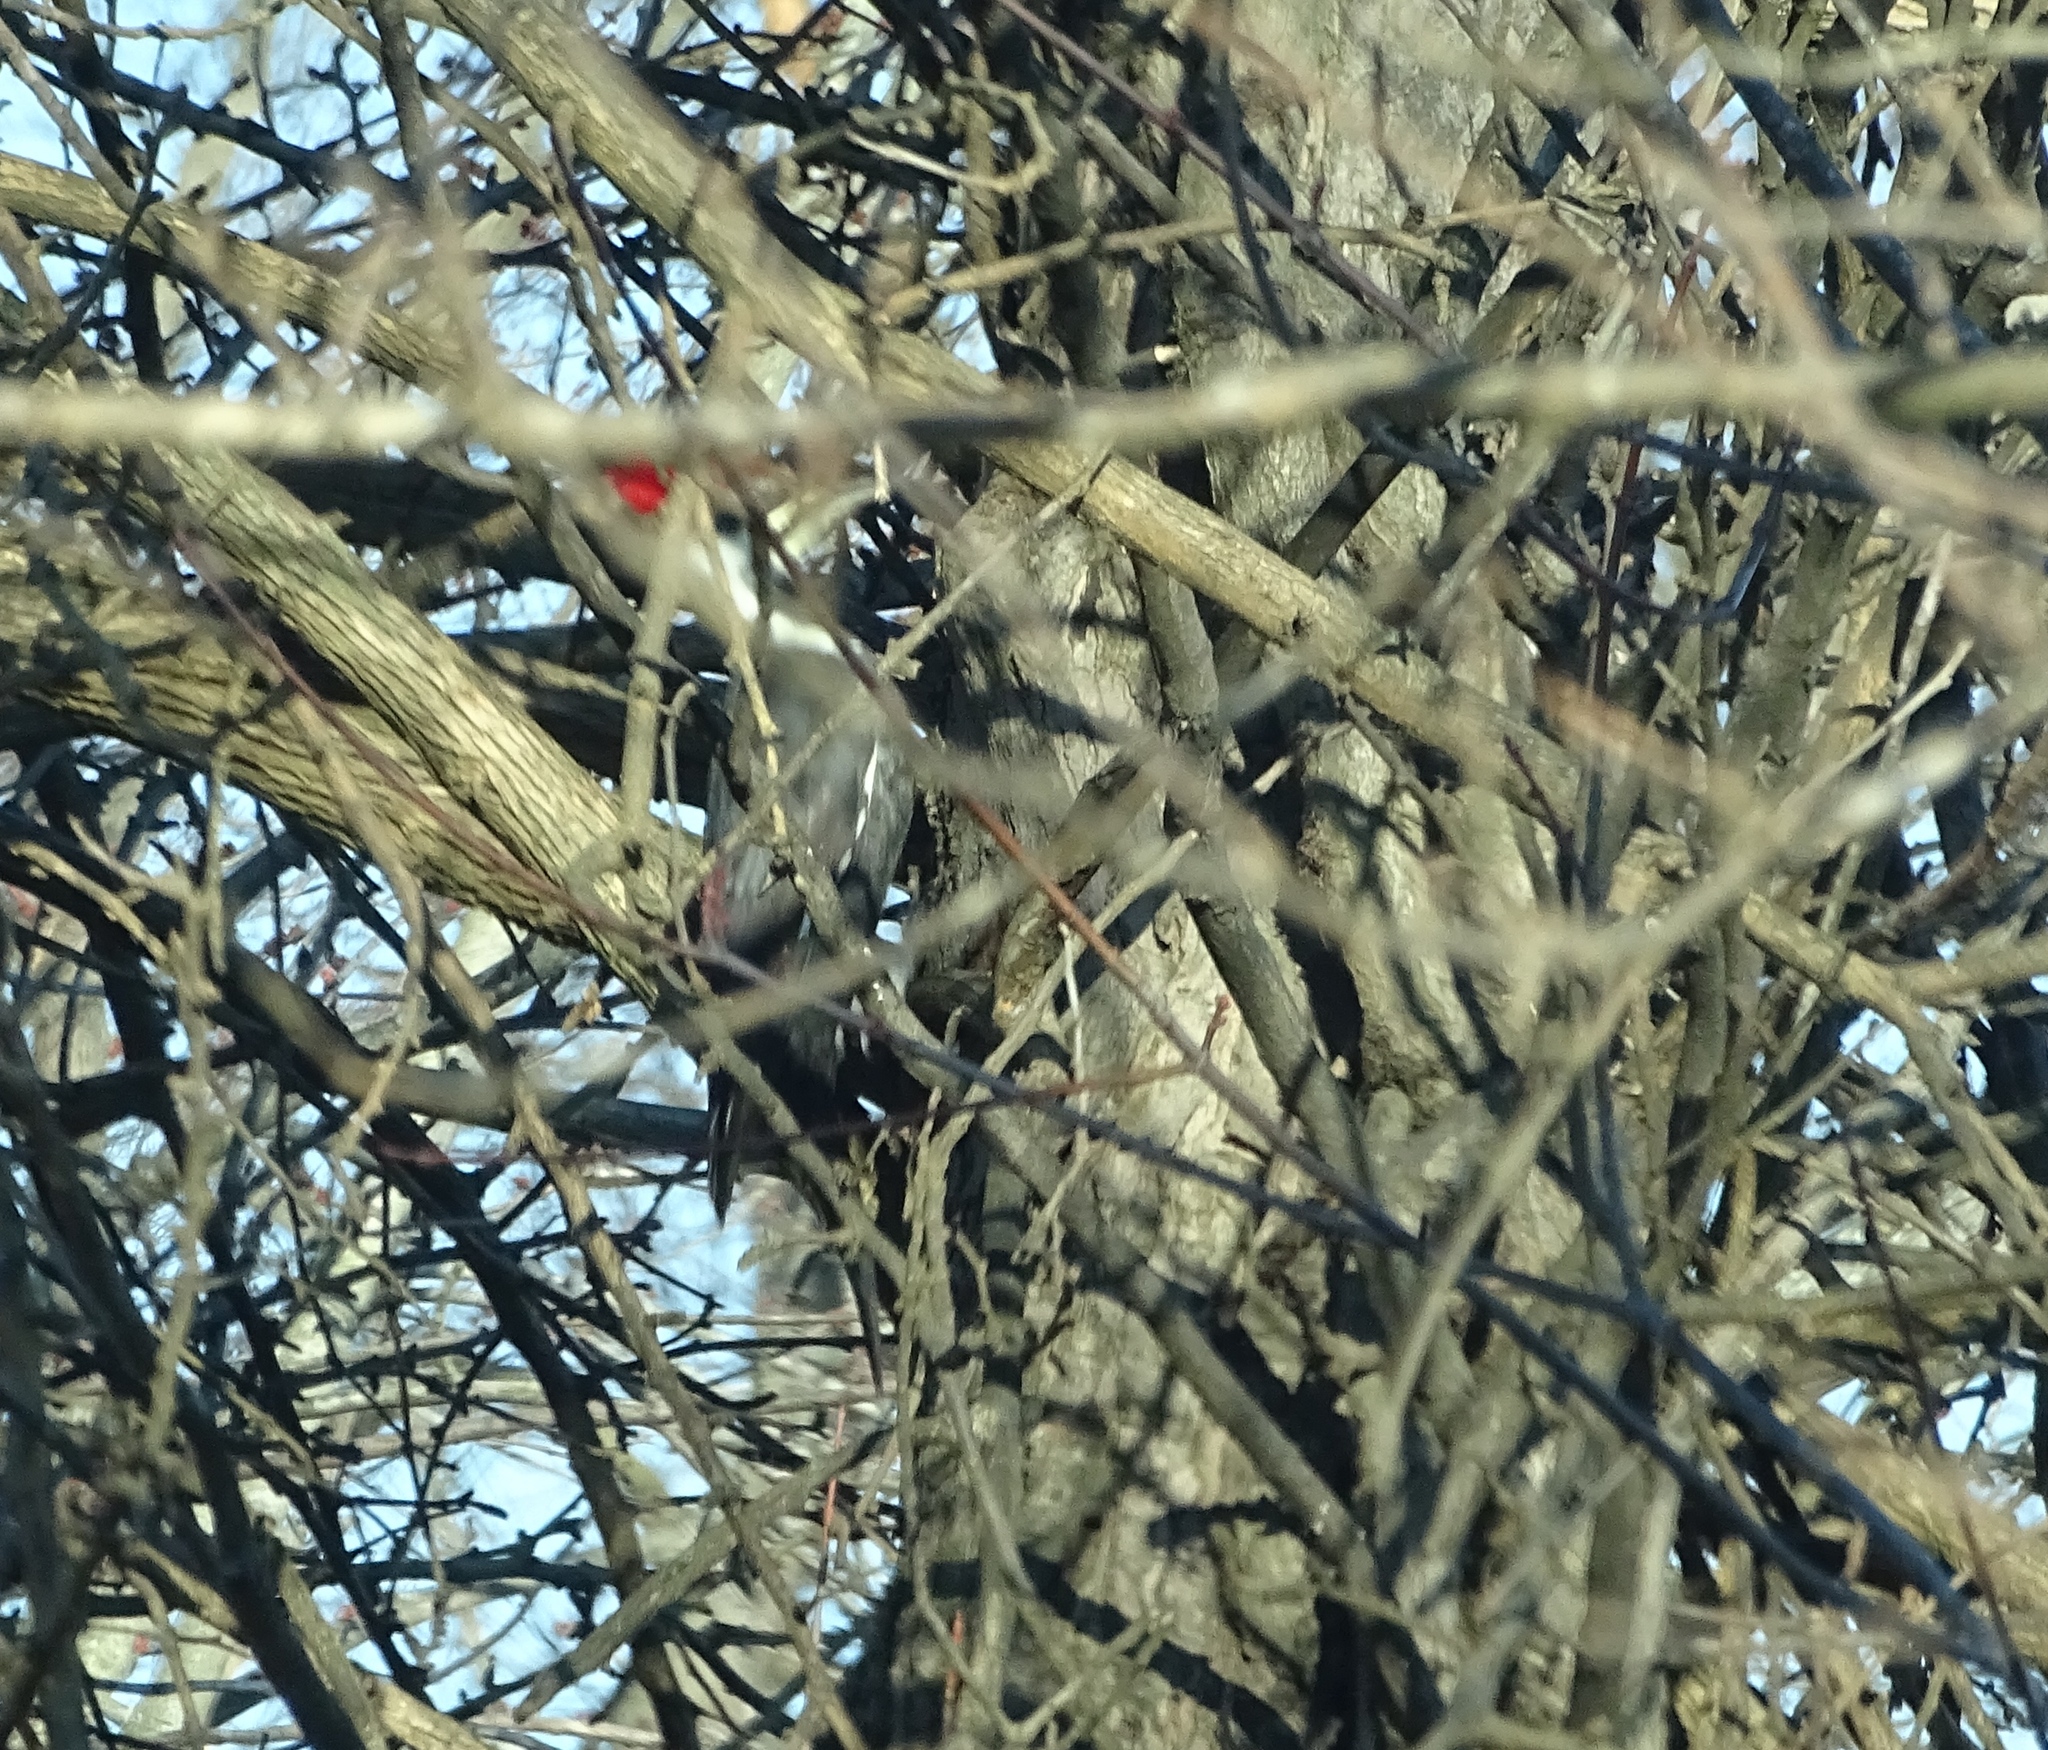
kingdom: Animalia
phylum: Chordata
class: Aves
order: Piciformes
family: Picidae
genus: Dryocopus
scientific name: Dryocopus pileatus
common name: Pileated woodpecker
